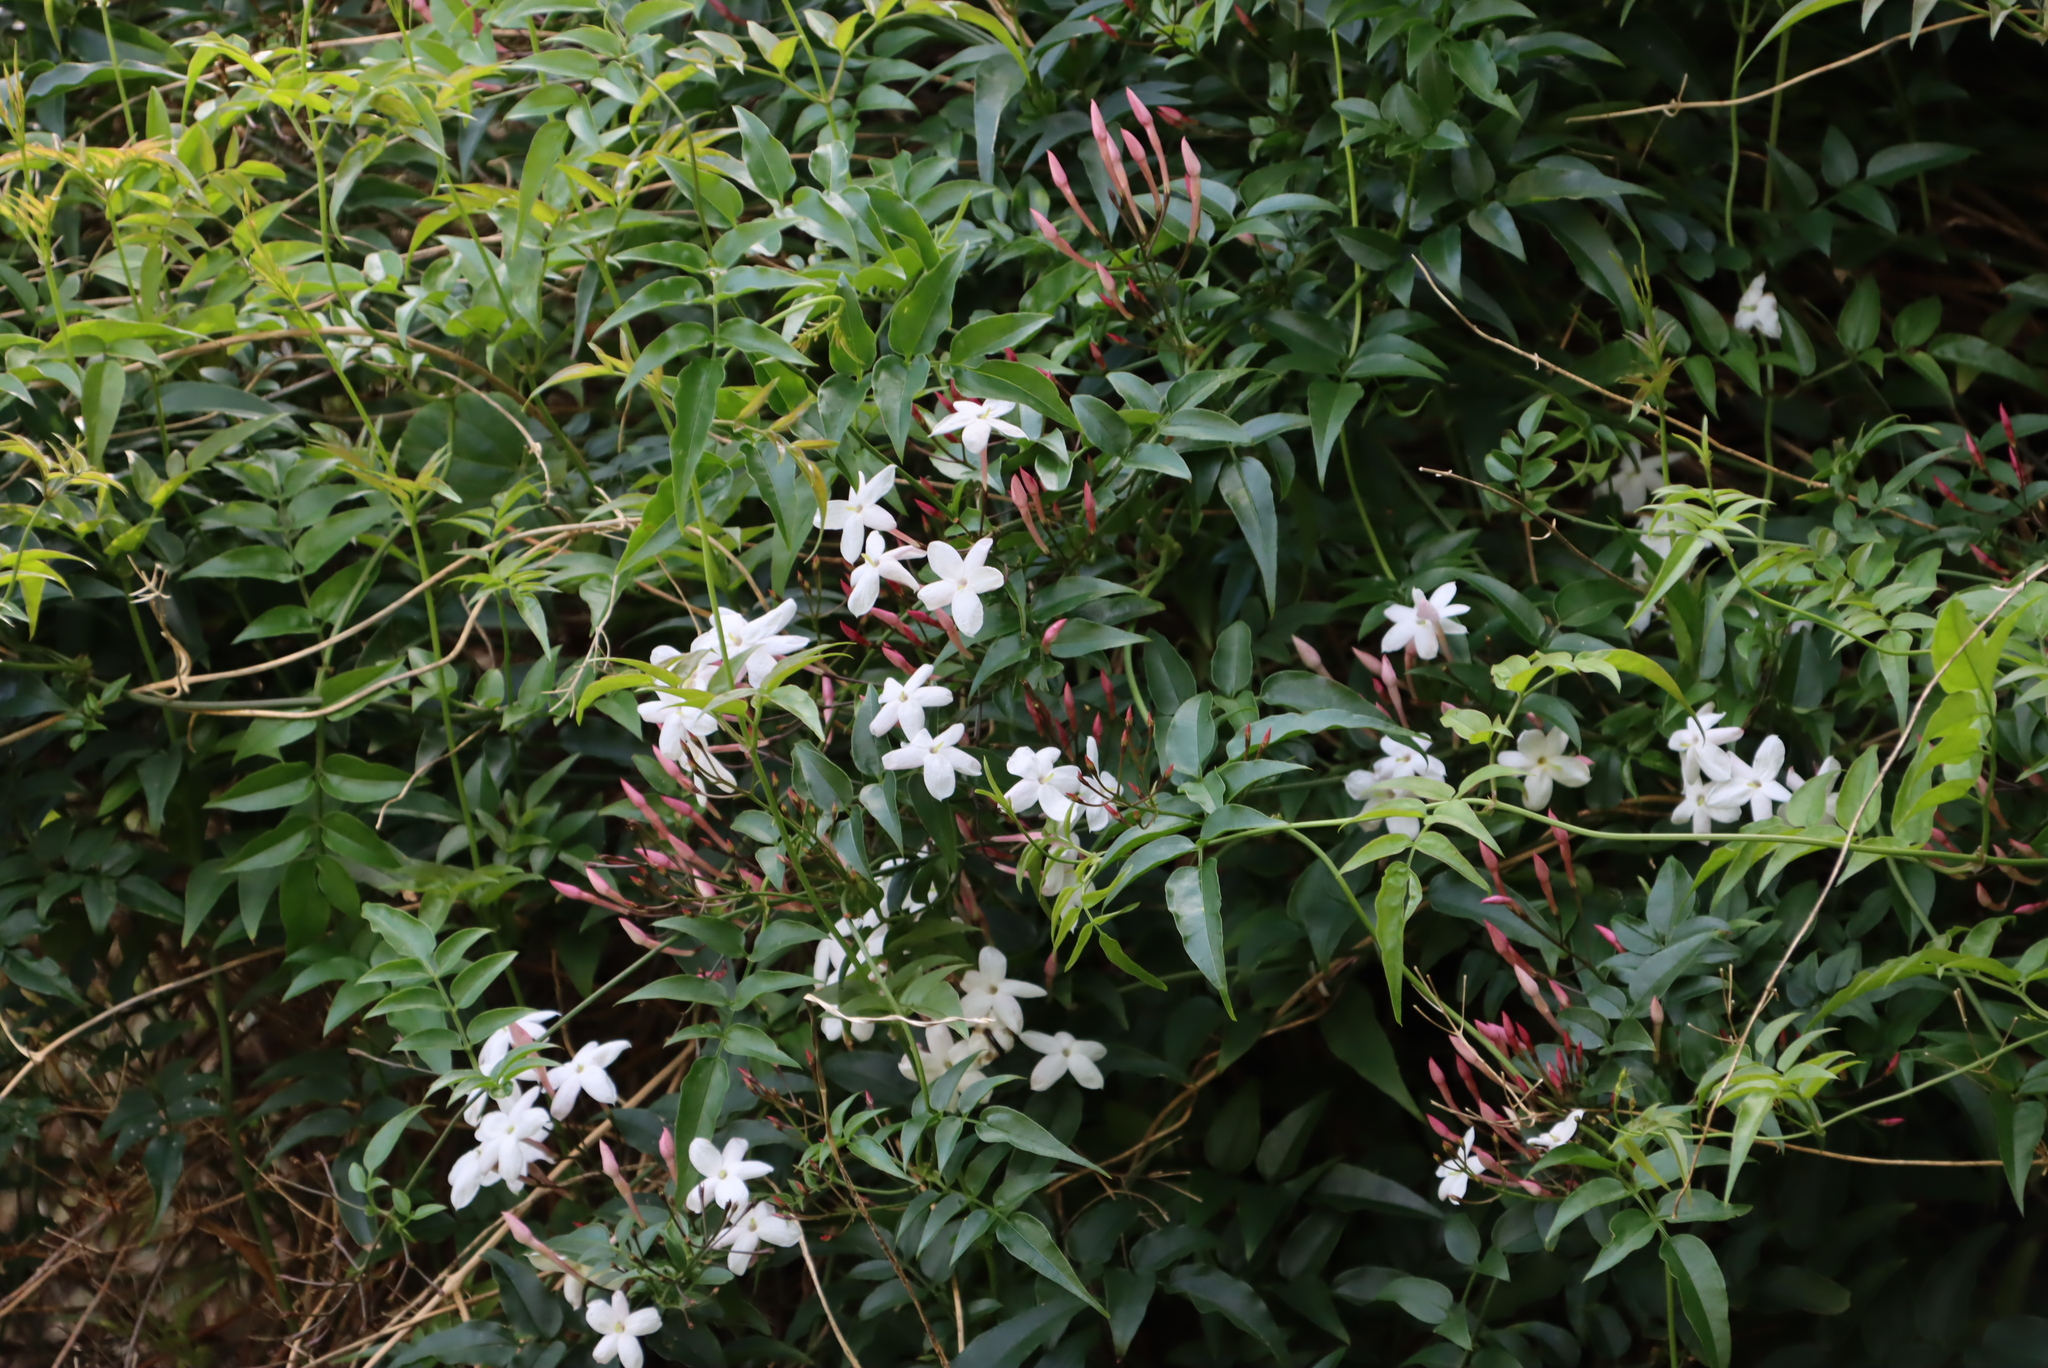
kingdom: Plantae
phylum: Tracheophyta
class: Magnoliopsida
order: Lamiales
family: Oleaceae
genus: Jasminum
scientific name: Jasminum polyanthum
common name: Pink jasmine
